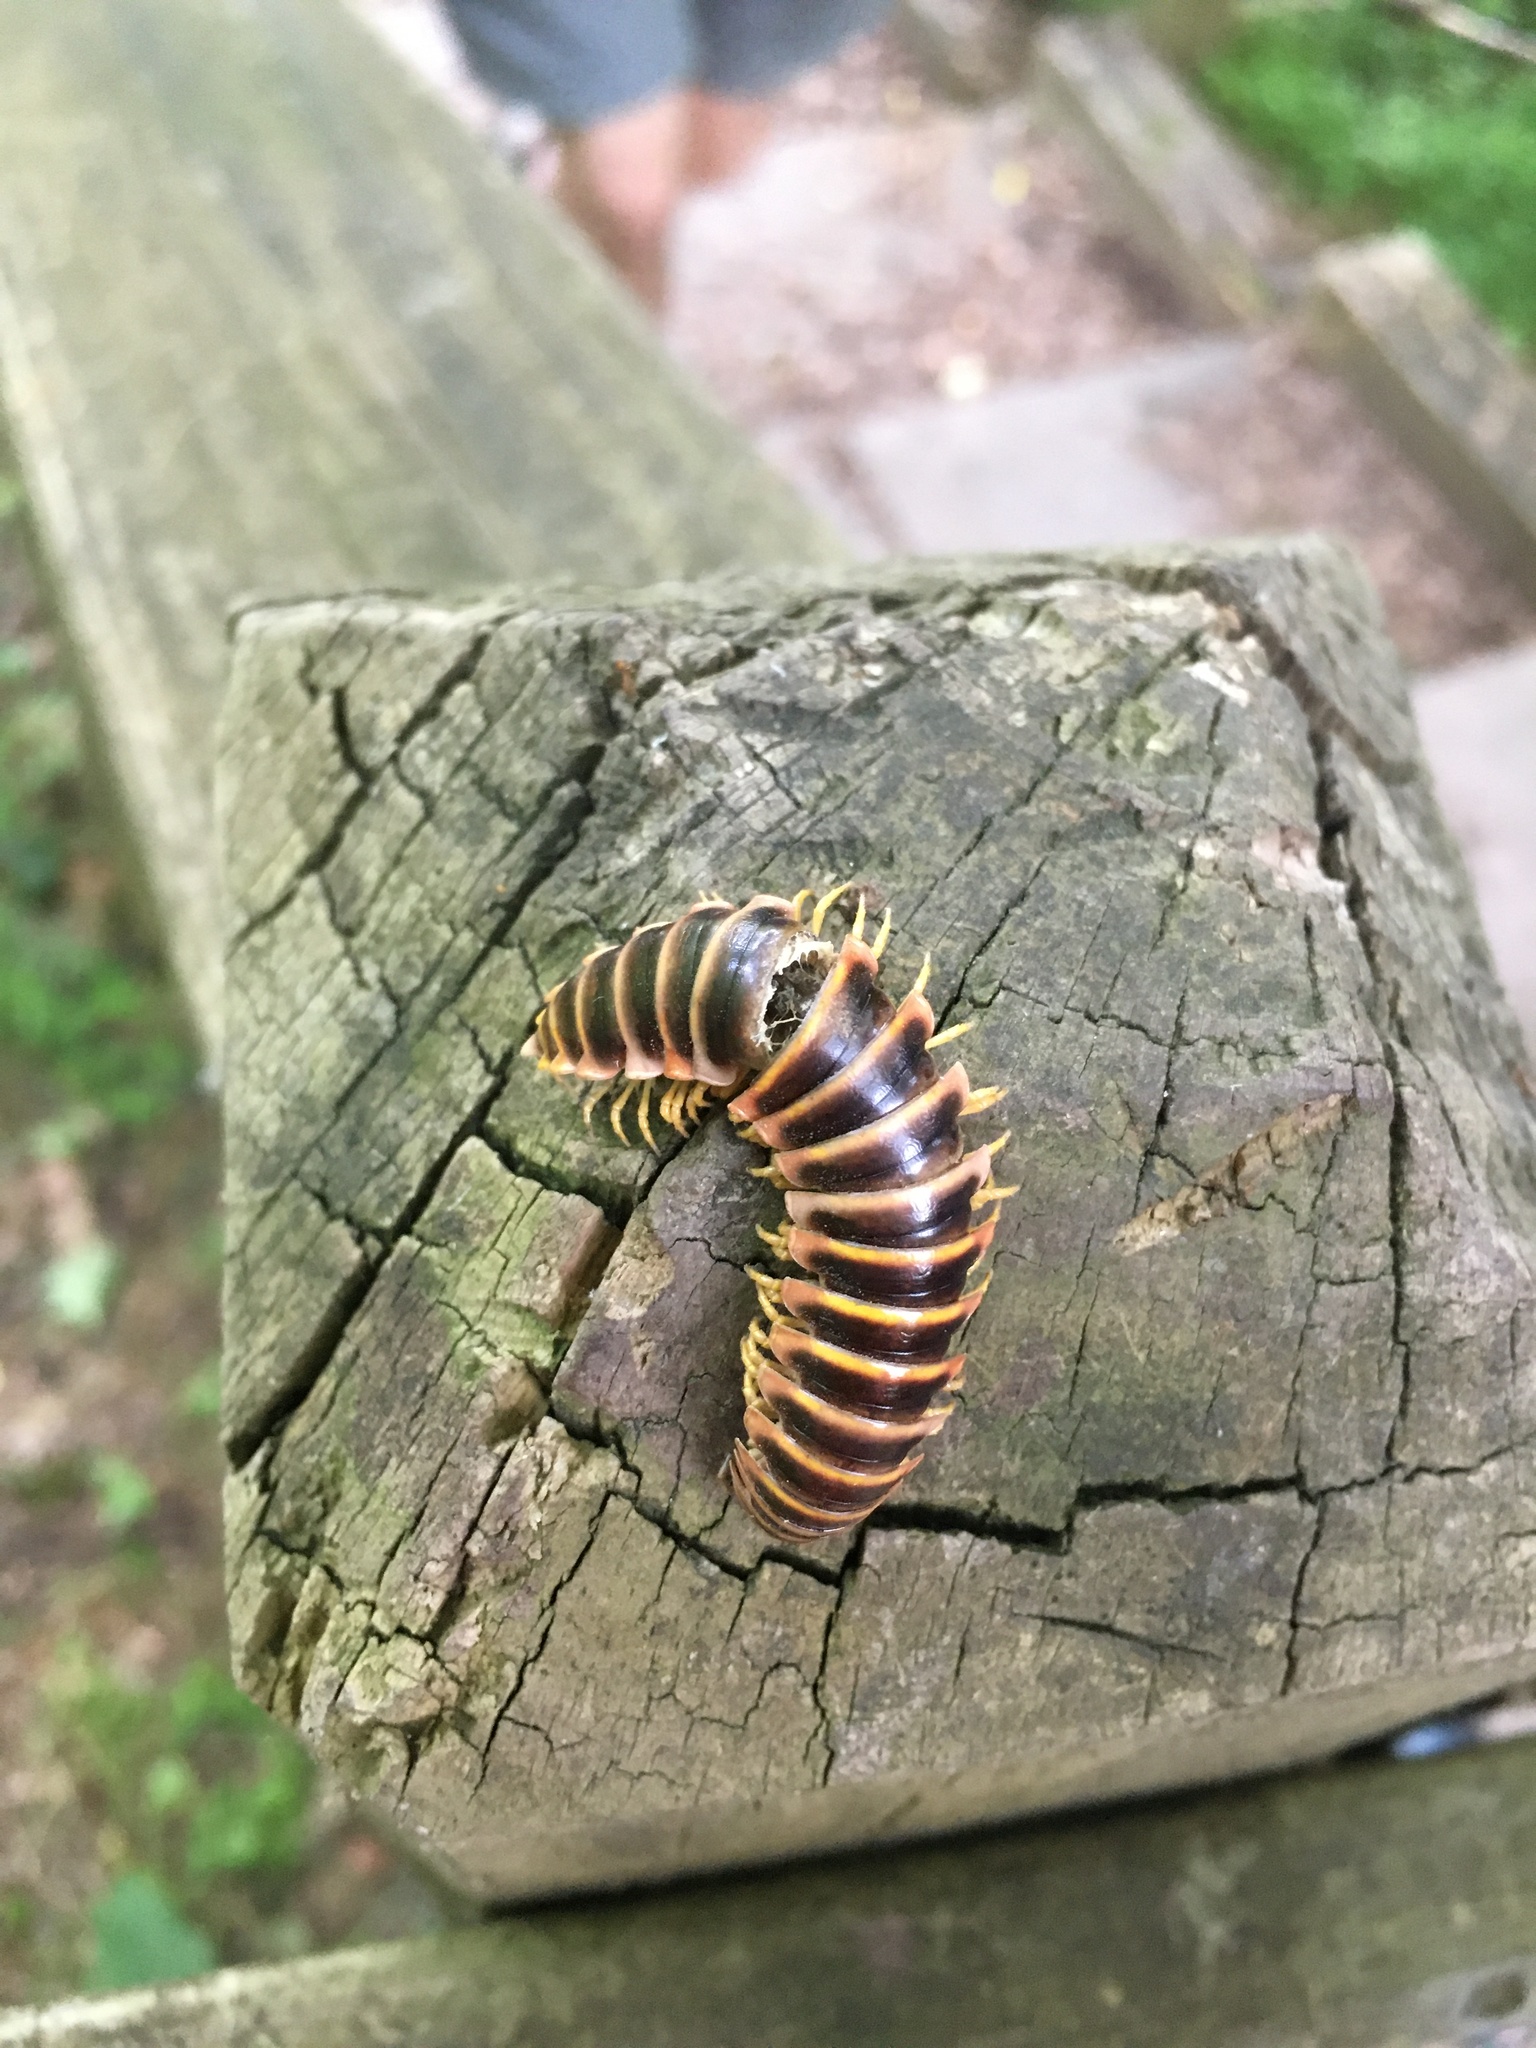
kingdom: Animalia
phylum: Arthropoda
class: Diplopoda
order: Polydesmida
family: Xystodesmidae
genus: Apheloria
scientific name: Apheloria virginiensis
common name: Black-and-gold flat millipede
